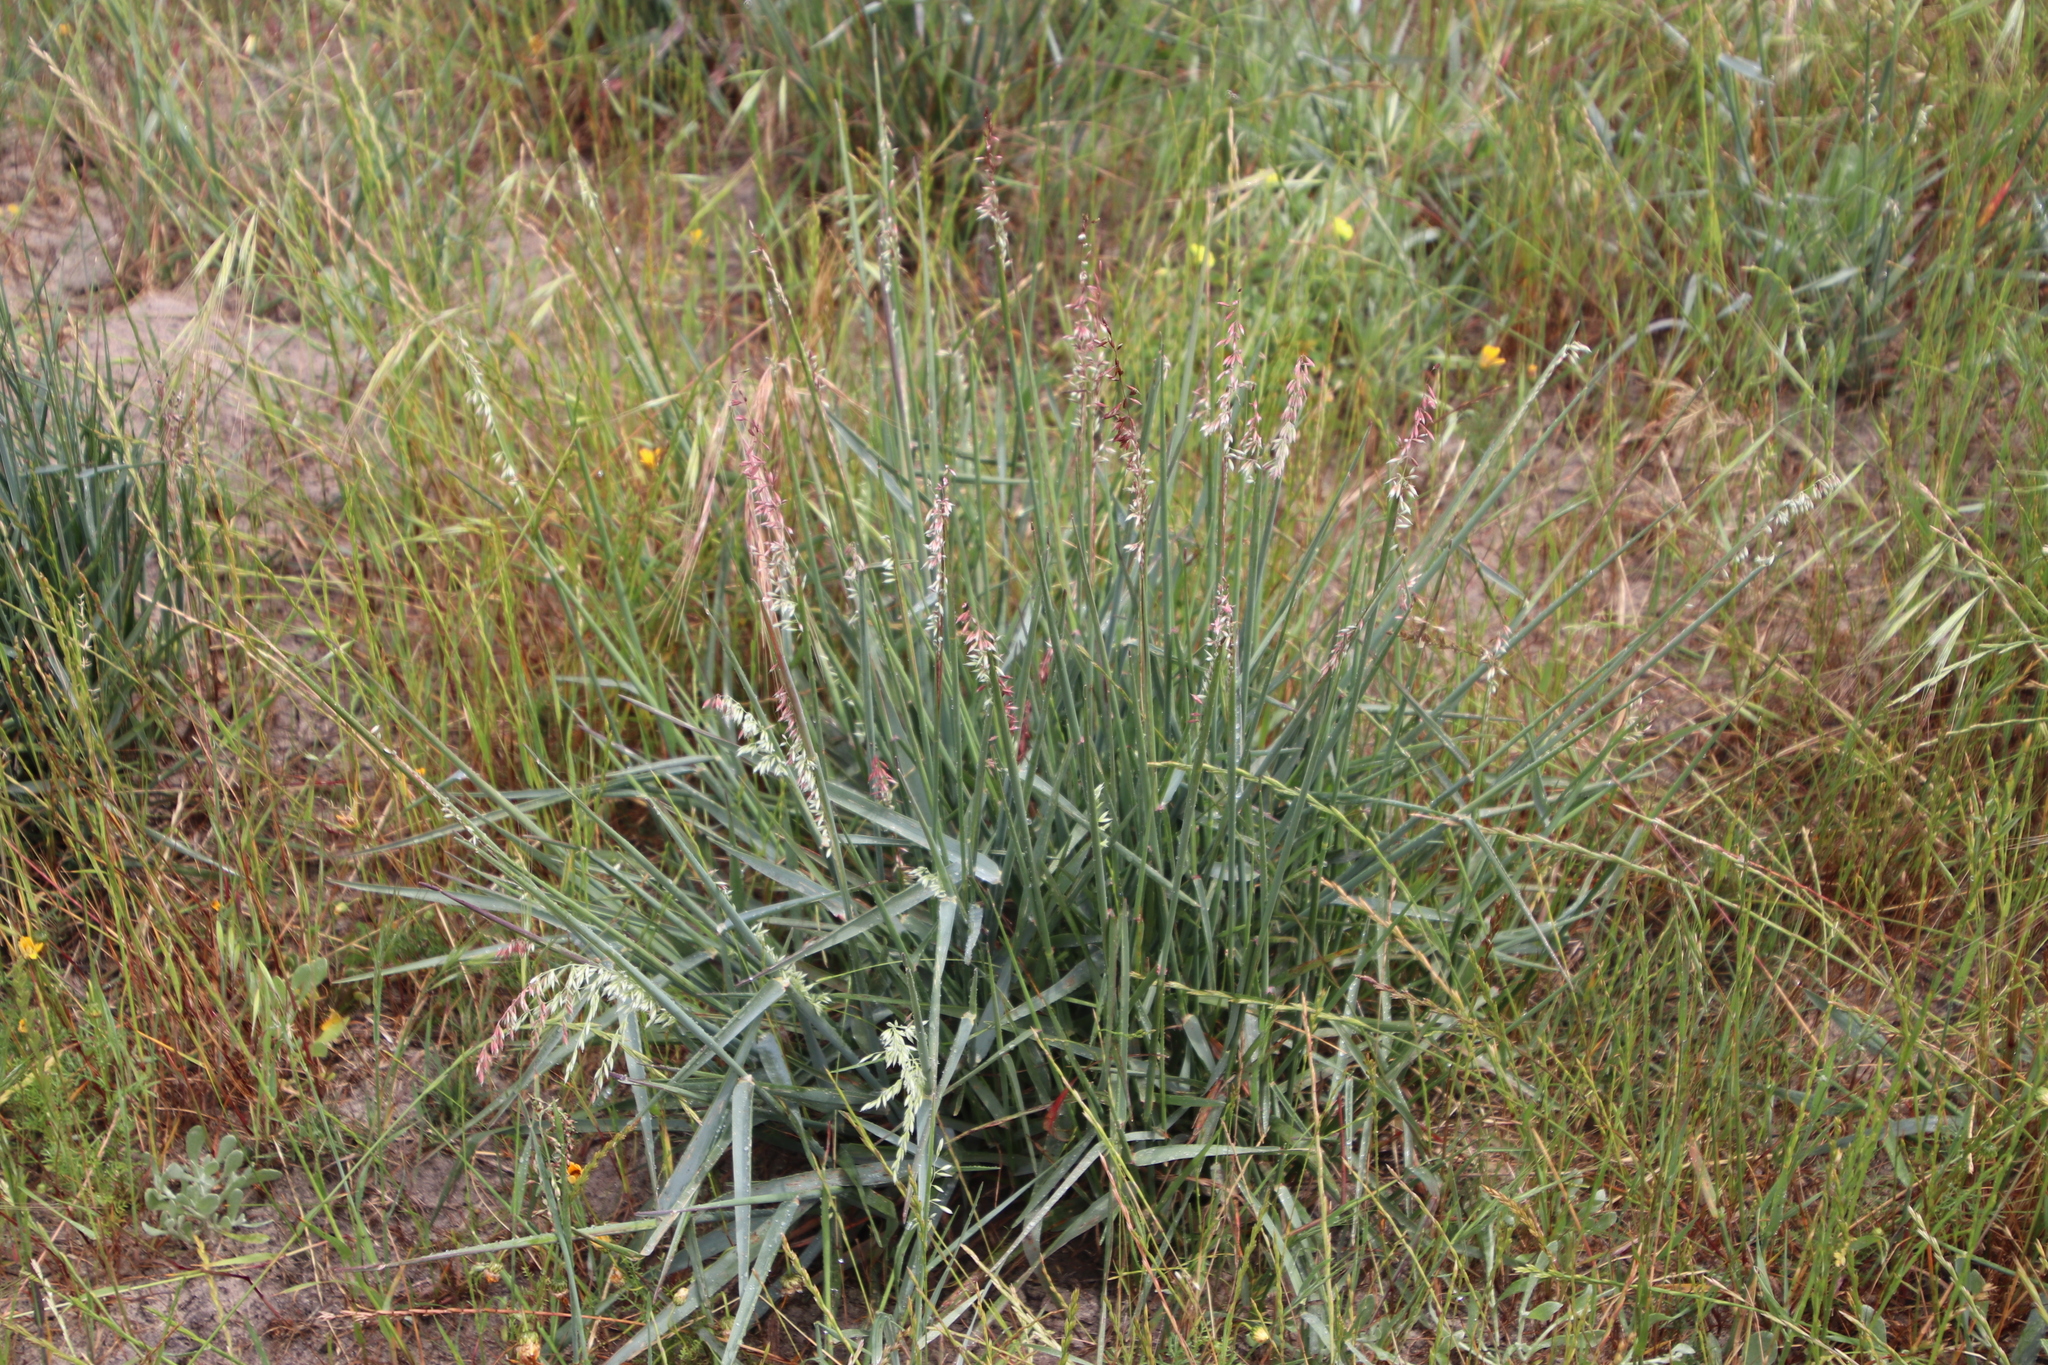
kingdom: Plantae
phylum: Tracheophyta
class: Liliopsida
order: Poales
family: Poaceae
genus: Ehrharta
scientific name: Ehrharta calycina
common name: Perennial veldtgrass
